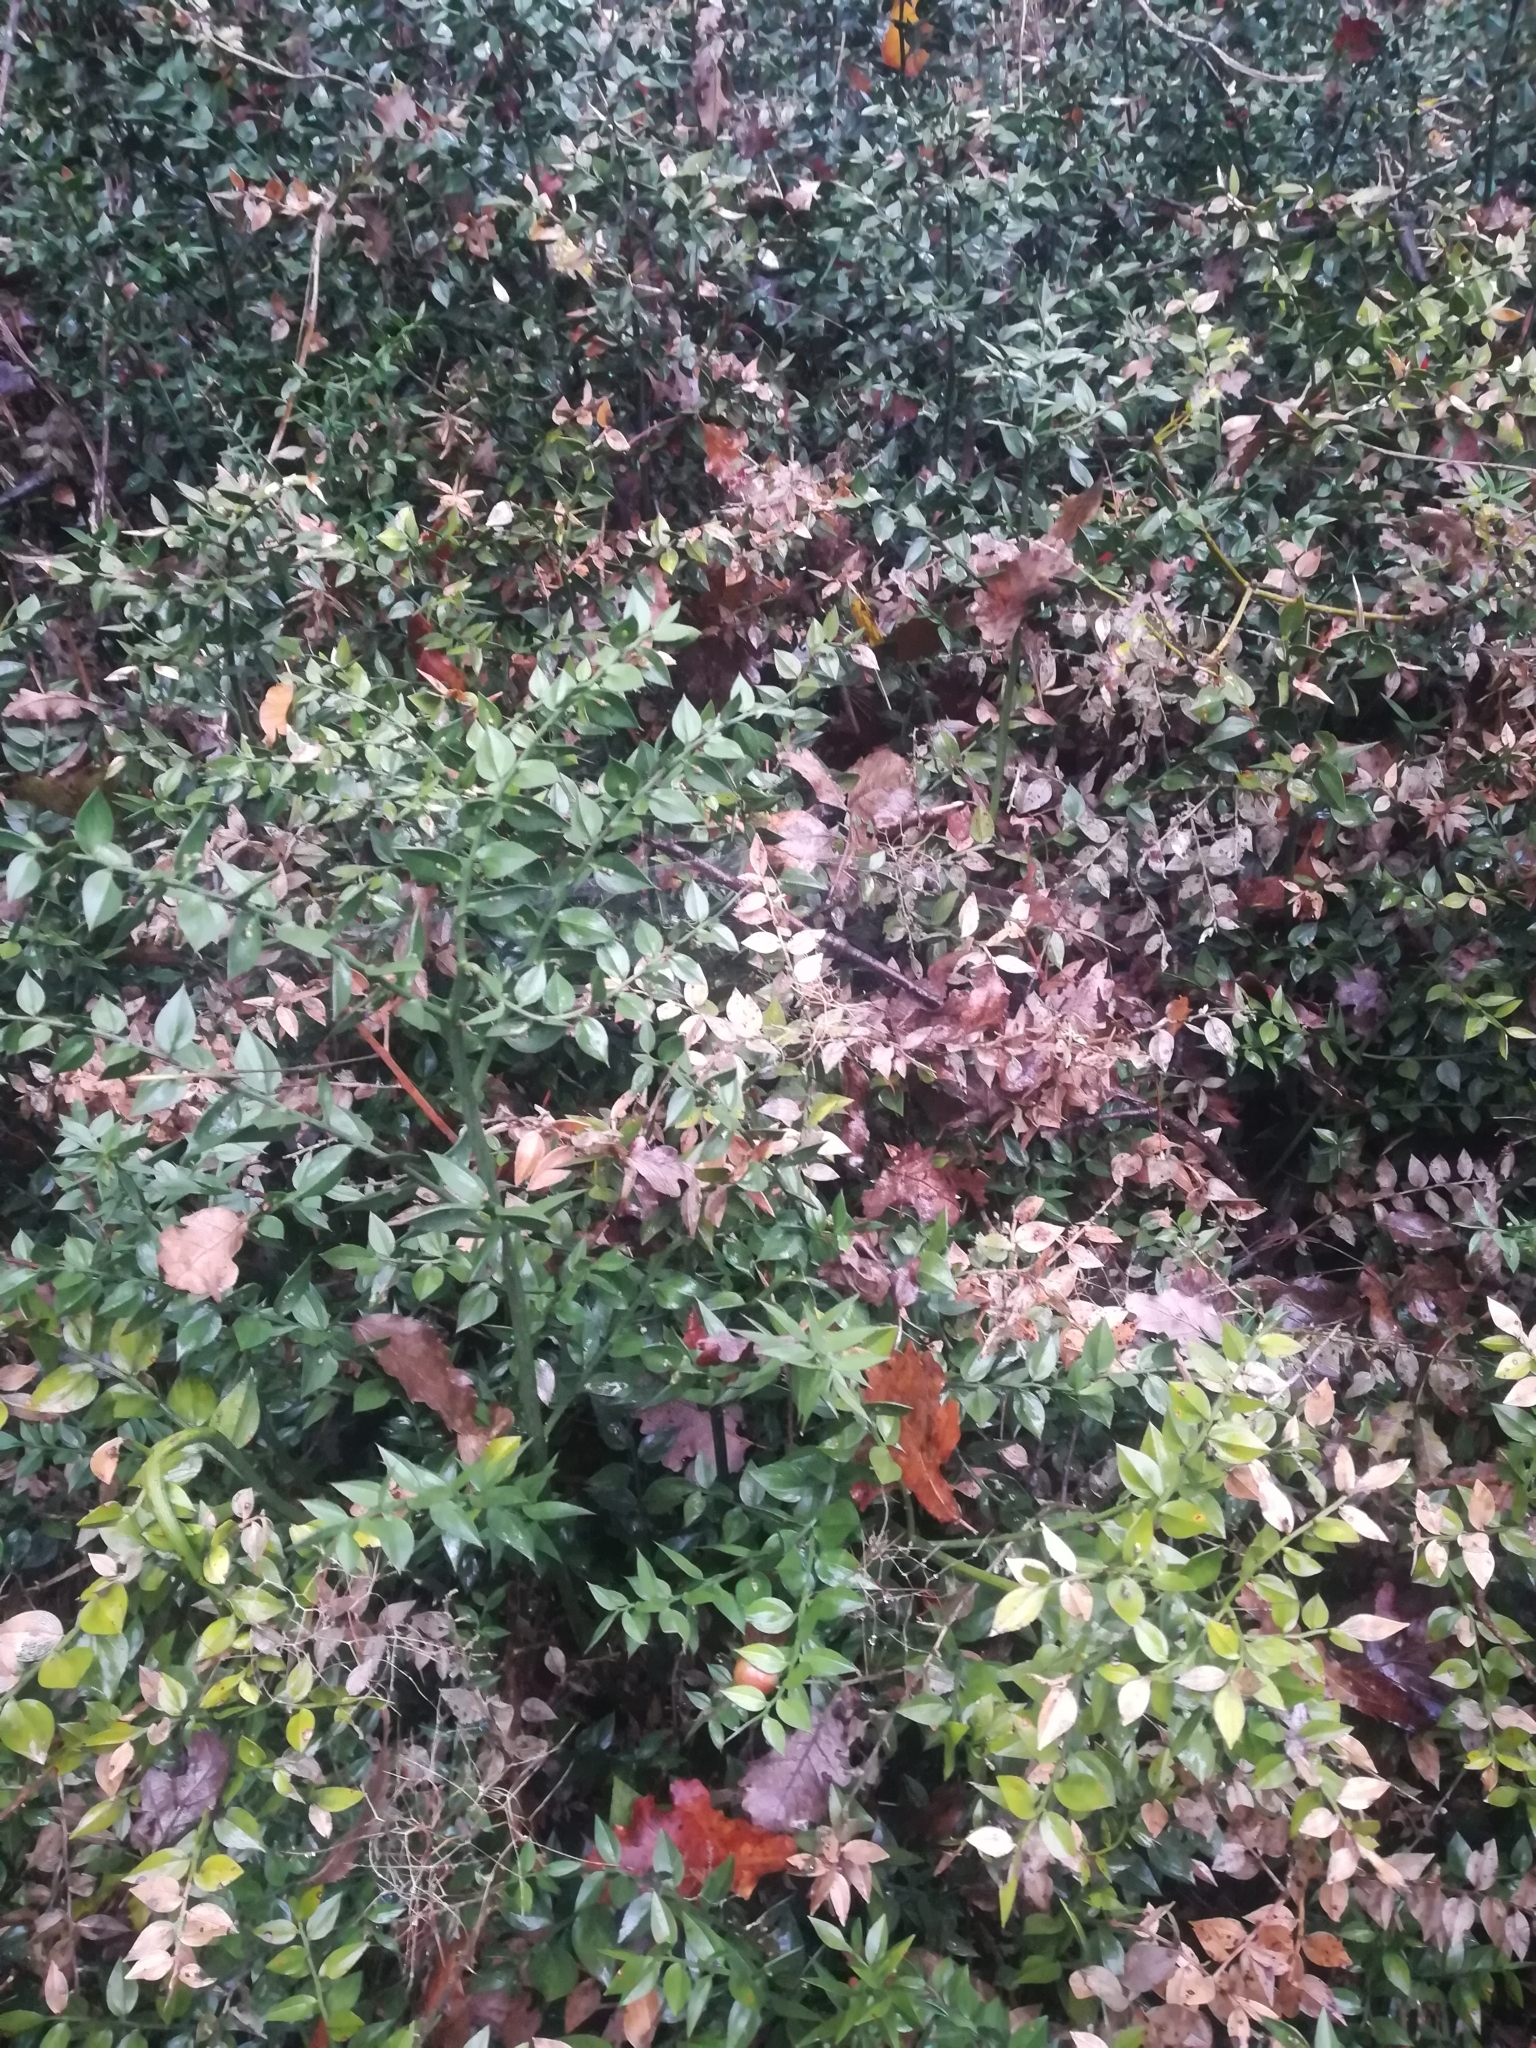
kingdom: Plantae
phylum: Tracheophyta
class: Liliopsida
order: Asparagales
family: Asparagaceae
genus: Ruscus
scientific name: Ruscus aculeatus
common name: Butcher's-broom
